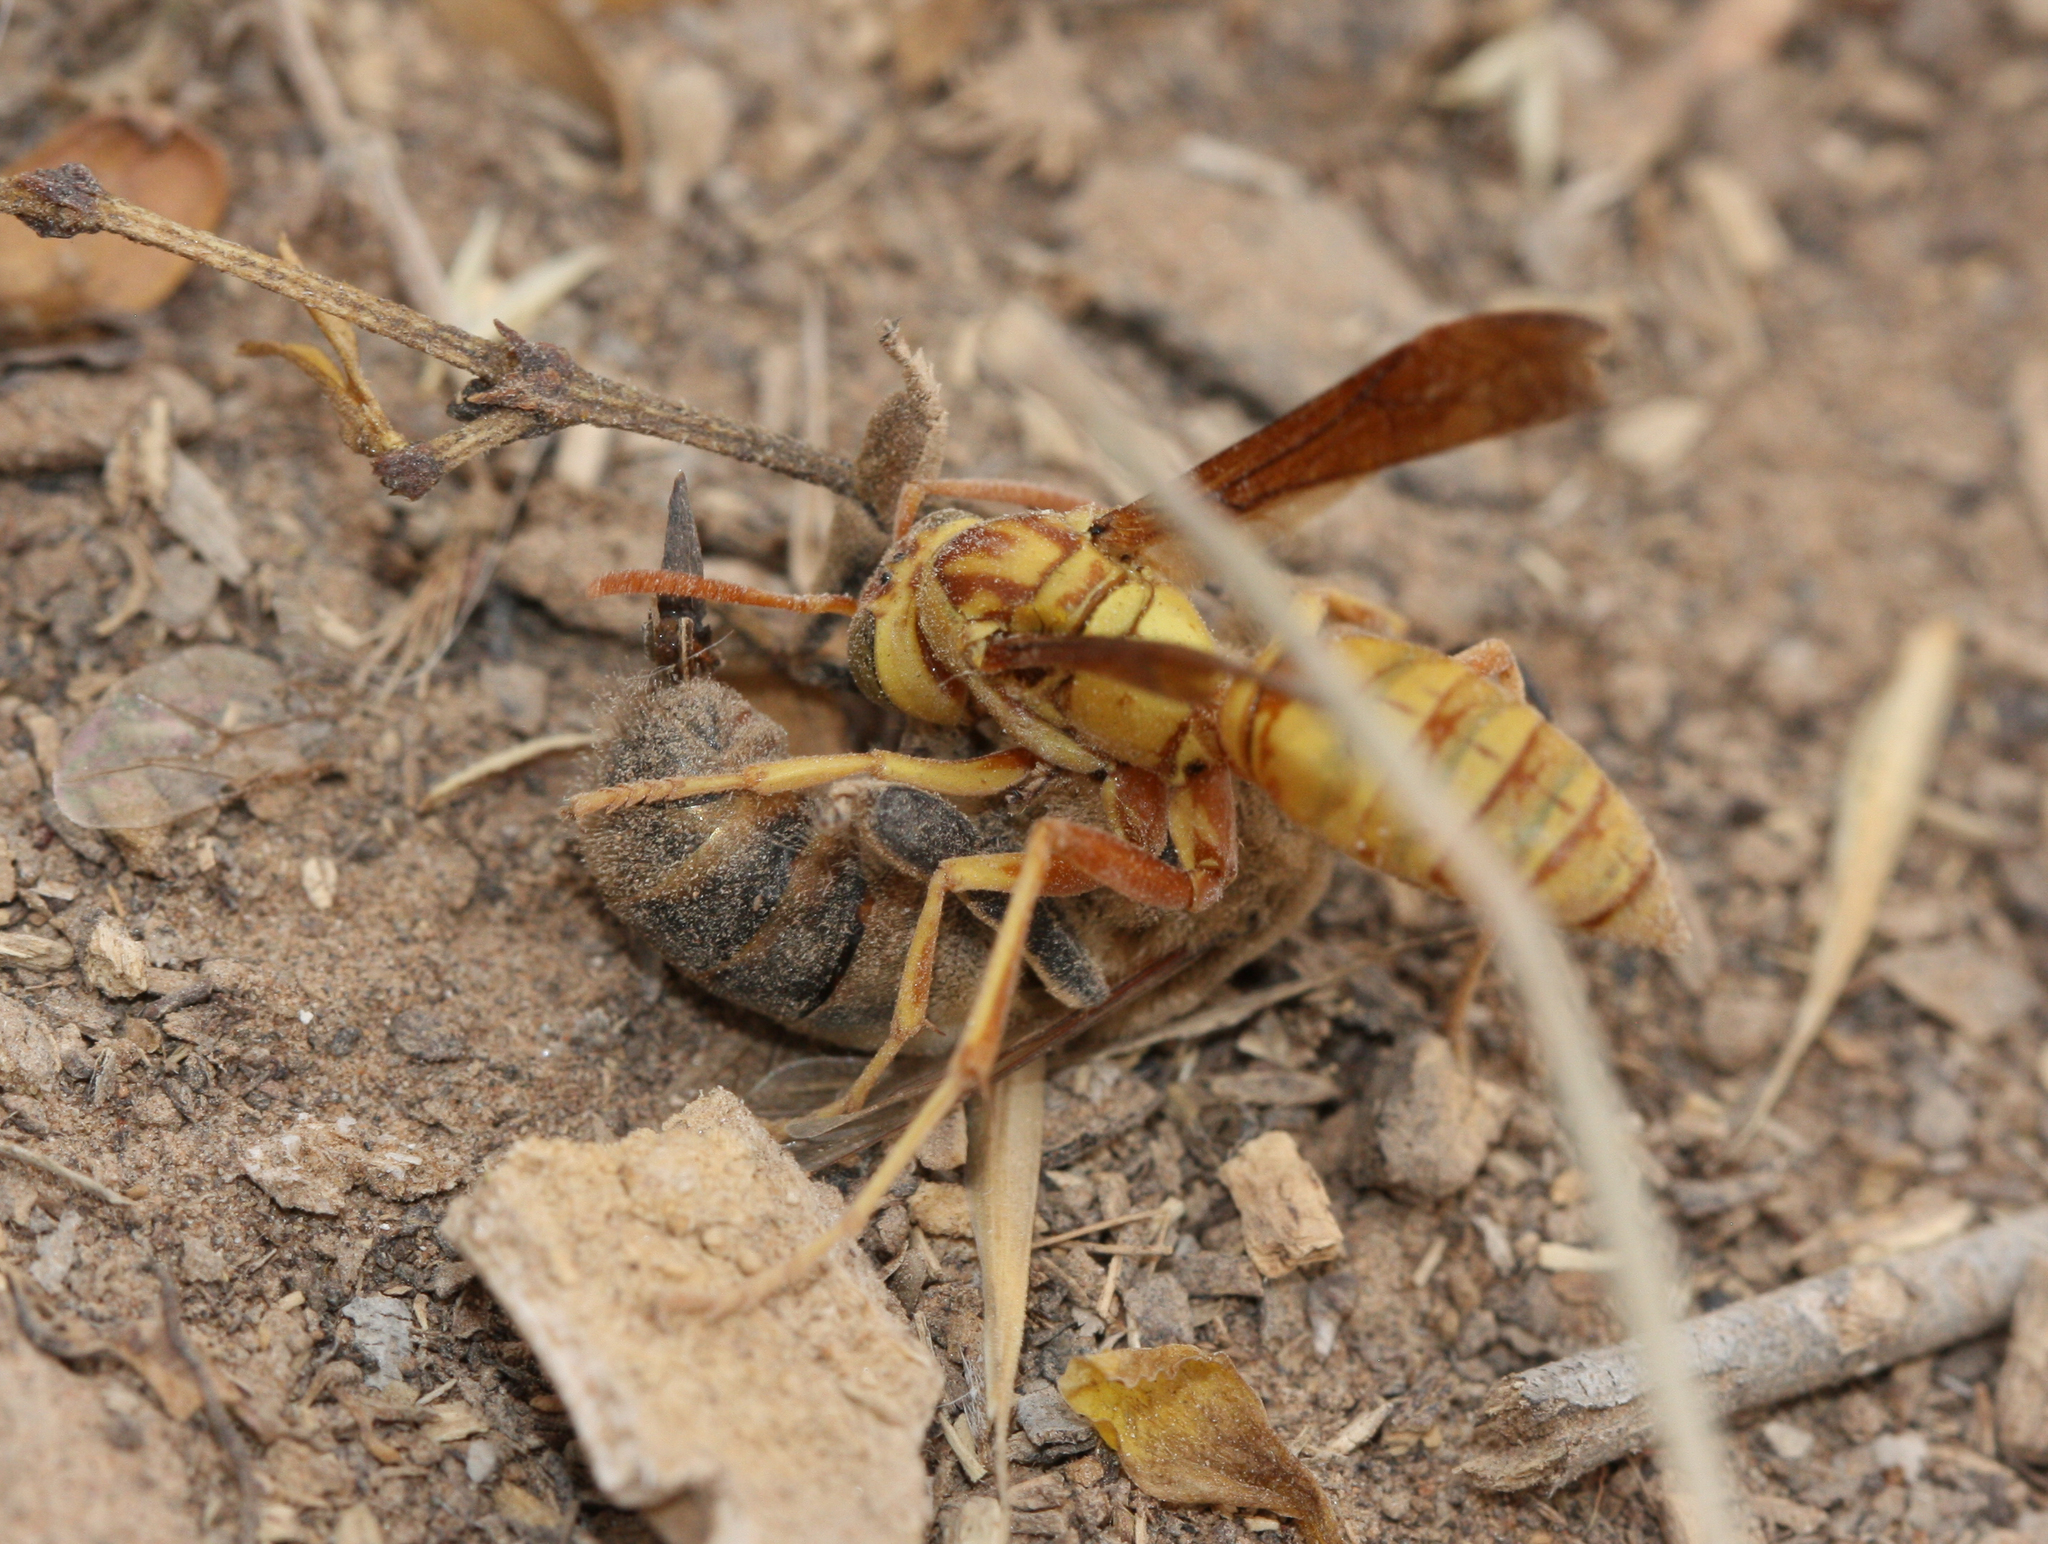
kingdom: Animalia
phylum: Arthropoda
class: Insecta
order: Hymenoptera
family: Eumenidae
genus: Polistes
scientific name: Polistes aurifer
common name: Paper wasp
